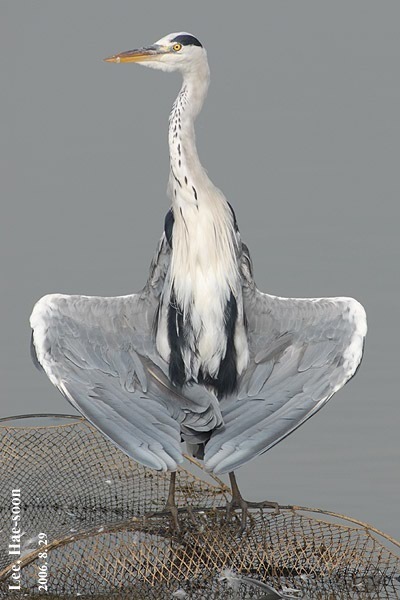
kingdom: Animalia
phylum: Chordata
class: Aves
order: Pelecaniformes
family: Ardeidae
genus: Ardea
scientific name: Ardea cinerea
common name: Grey heron
